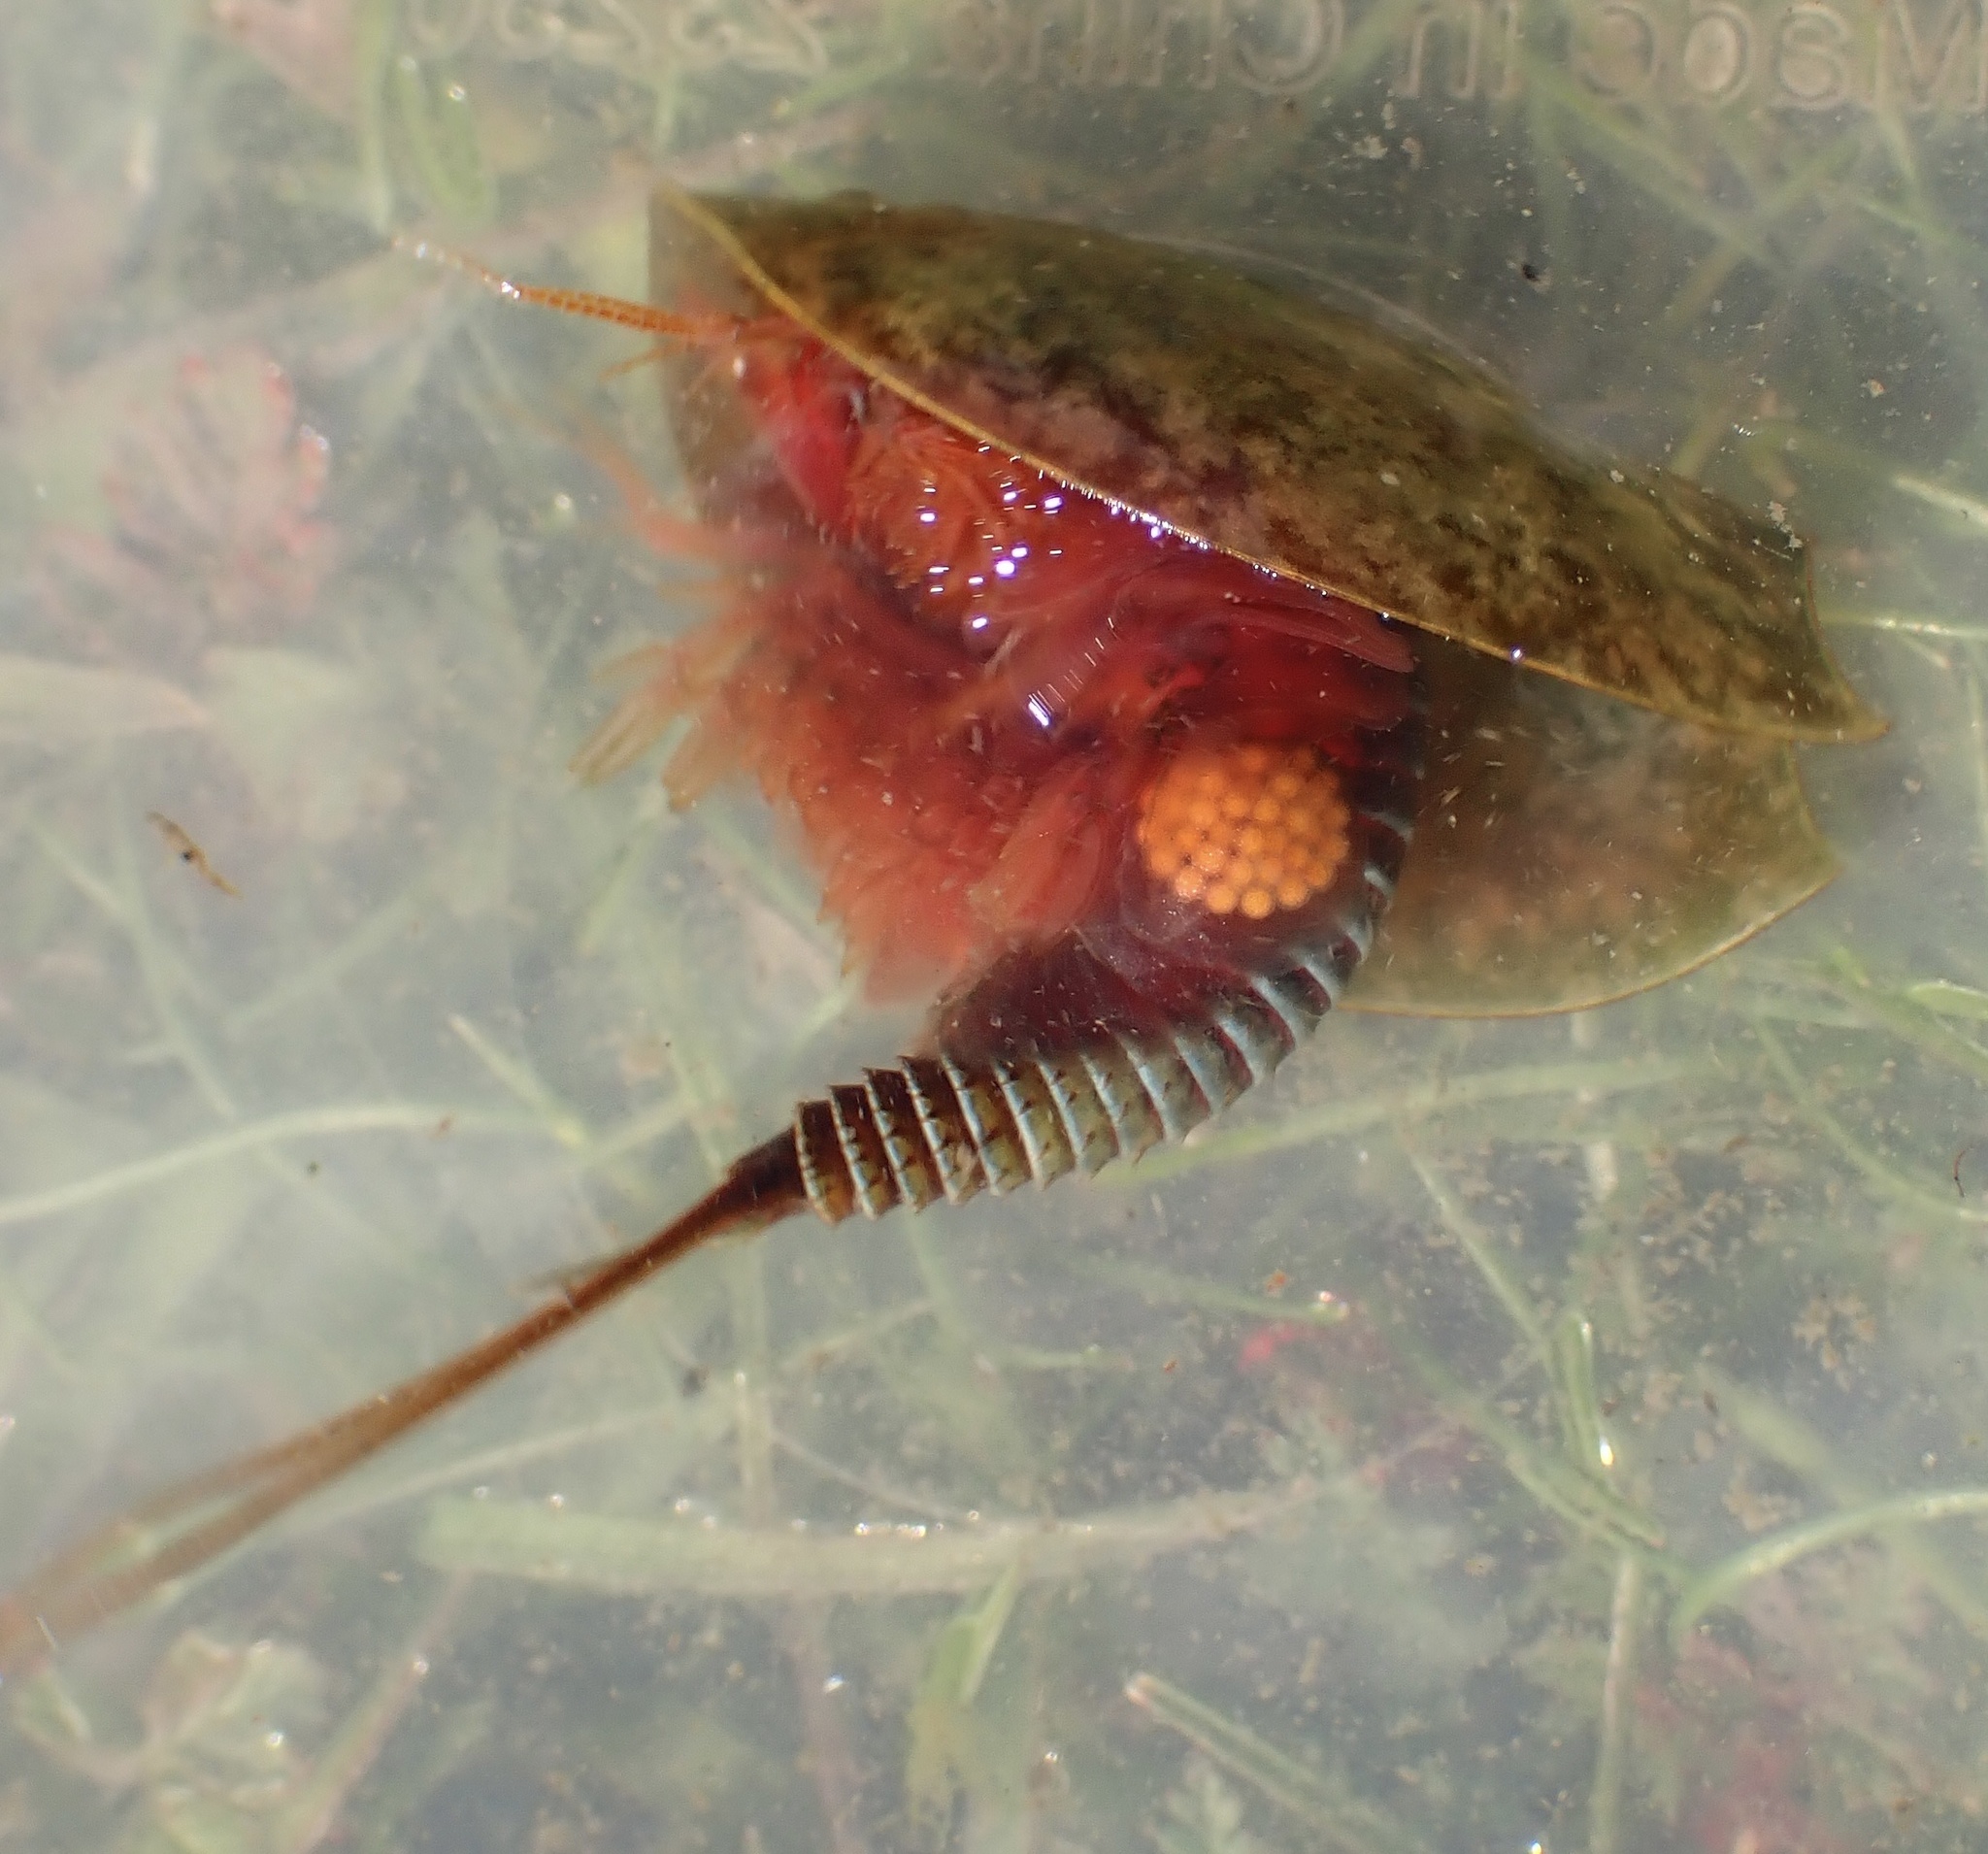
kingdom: Animalia
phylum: Arthropoda
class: Branchiopoda
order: Notostraca
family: Triopsidae
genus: Lepidurus
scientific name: Lepidurus packardi
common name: Vernal pool tadpole shrimp
